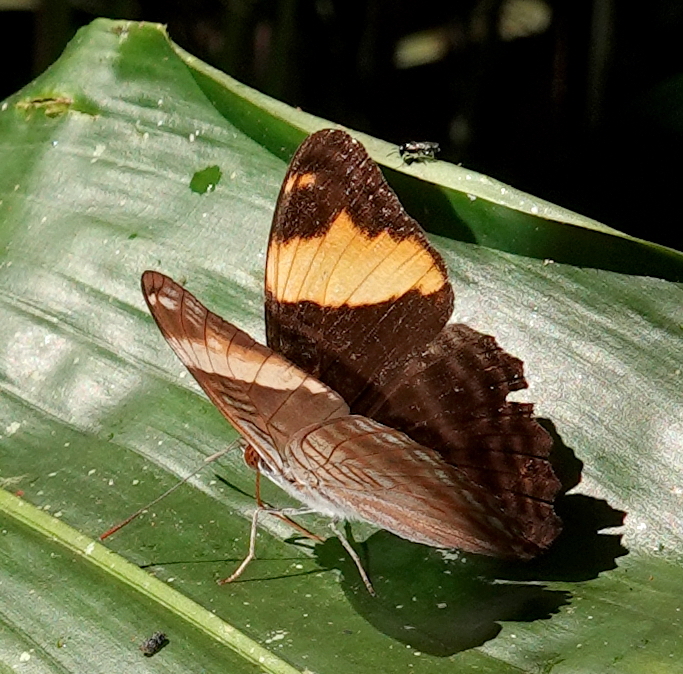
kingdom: Animalia
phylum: Arthropoda
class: Insecta
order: Lepidoptera
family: Nymphalidae
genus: Limenitis
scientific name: Limenitis boreas
